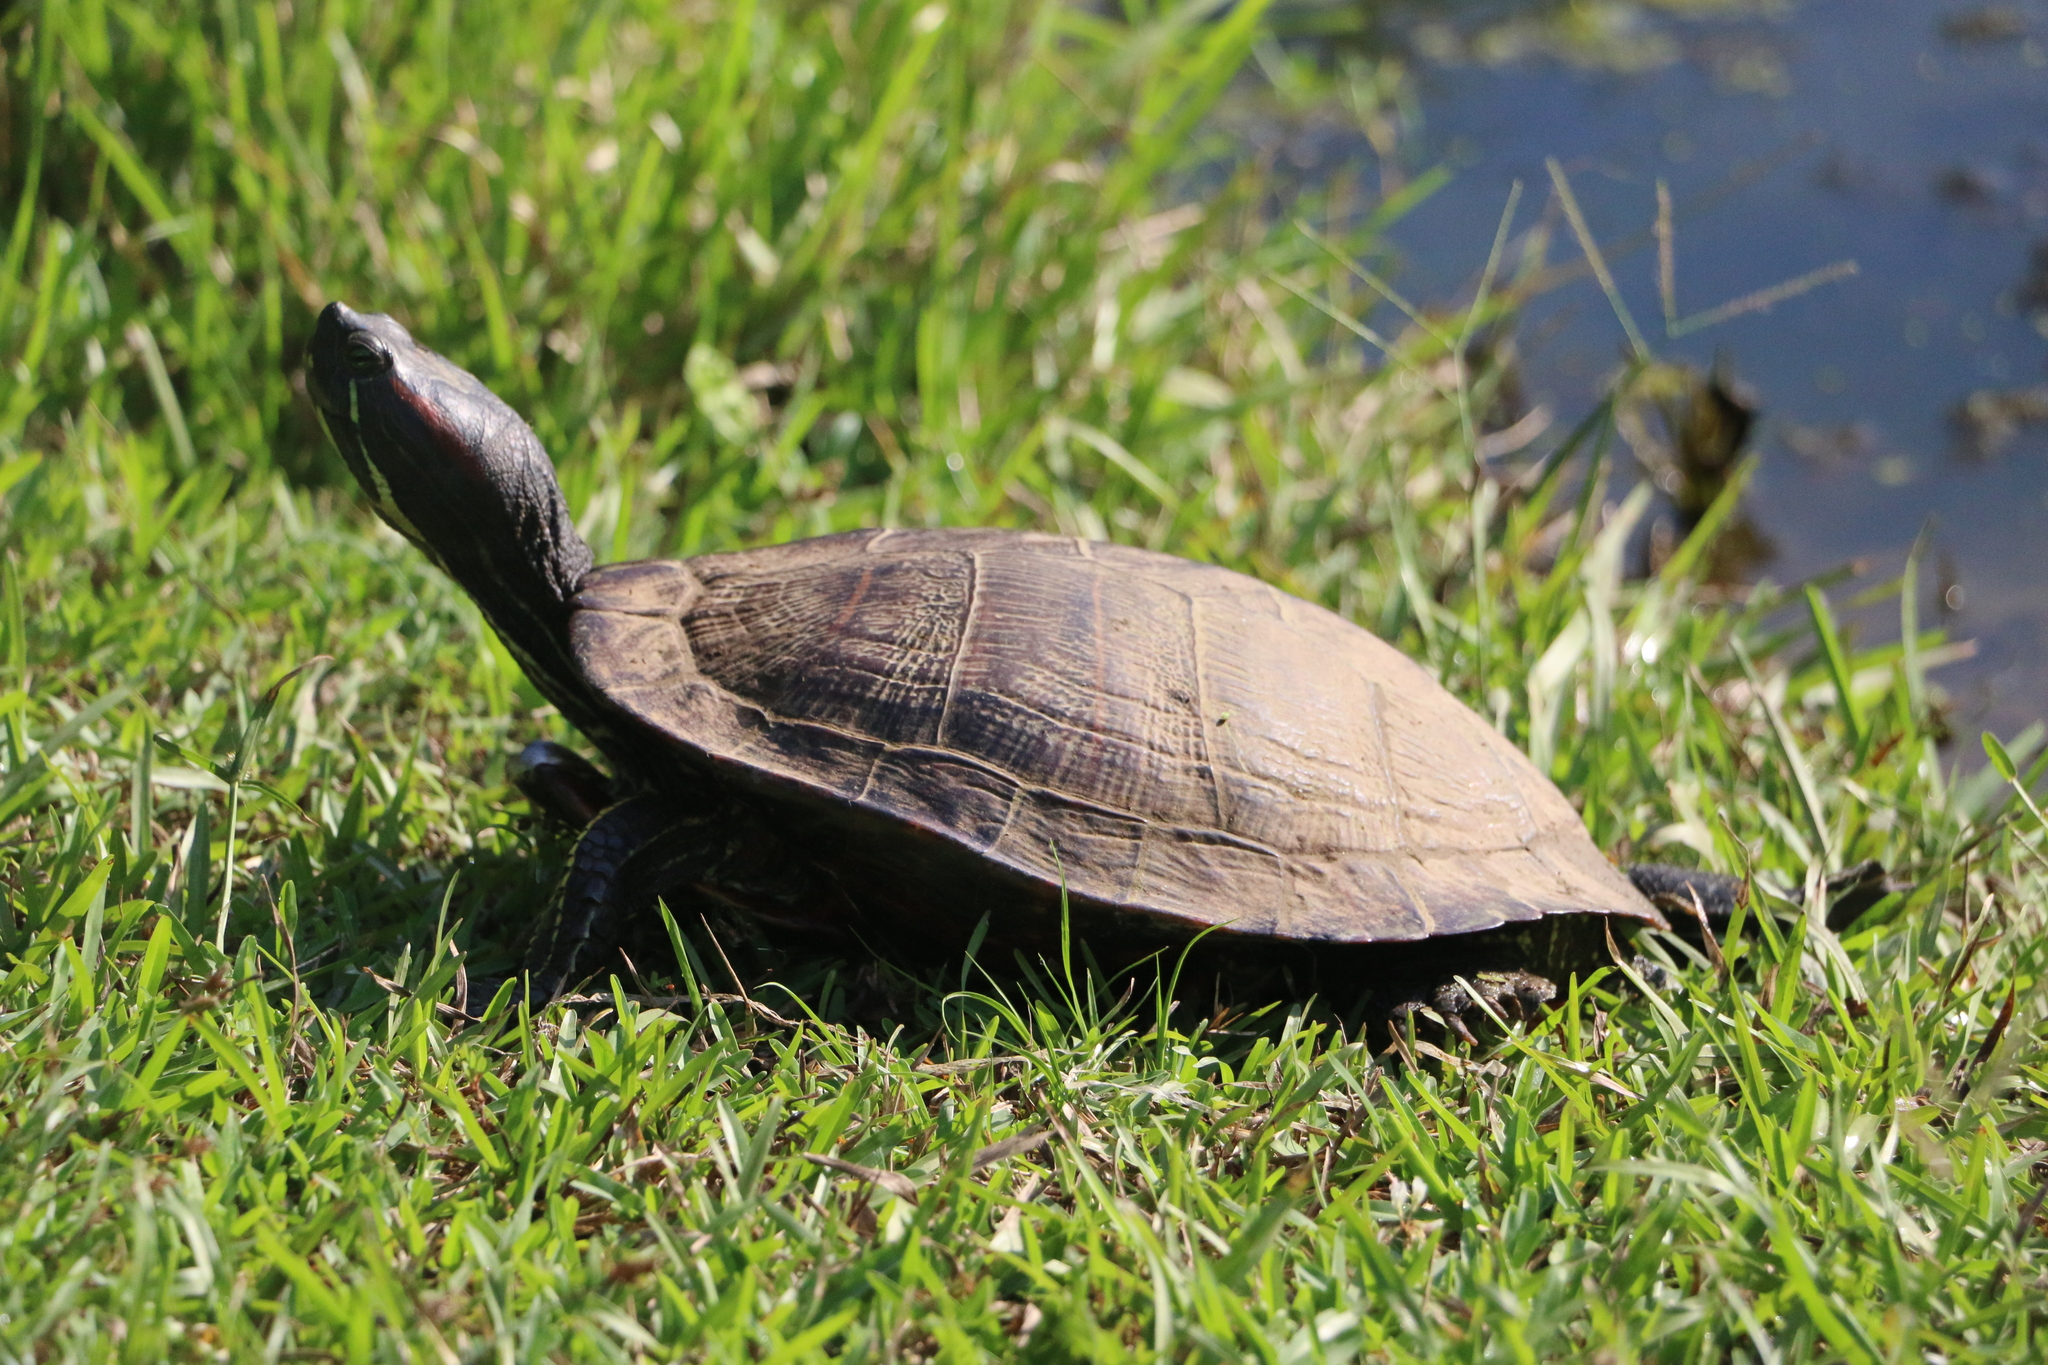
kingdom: Animalia
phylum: Chordata
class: Testudines
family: Emydidae
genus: Trachemys
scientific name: Trachemys scripta
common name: Slider
